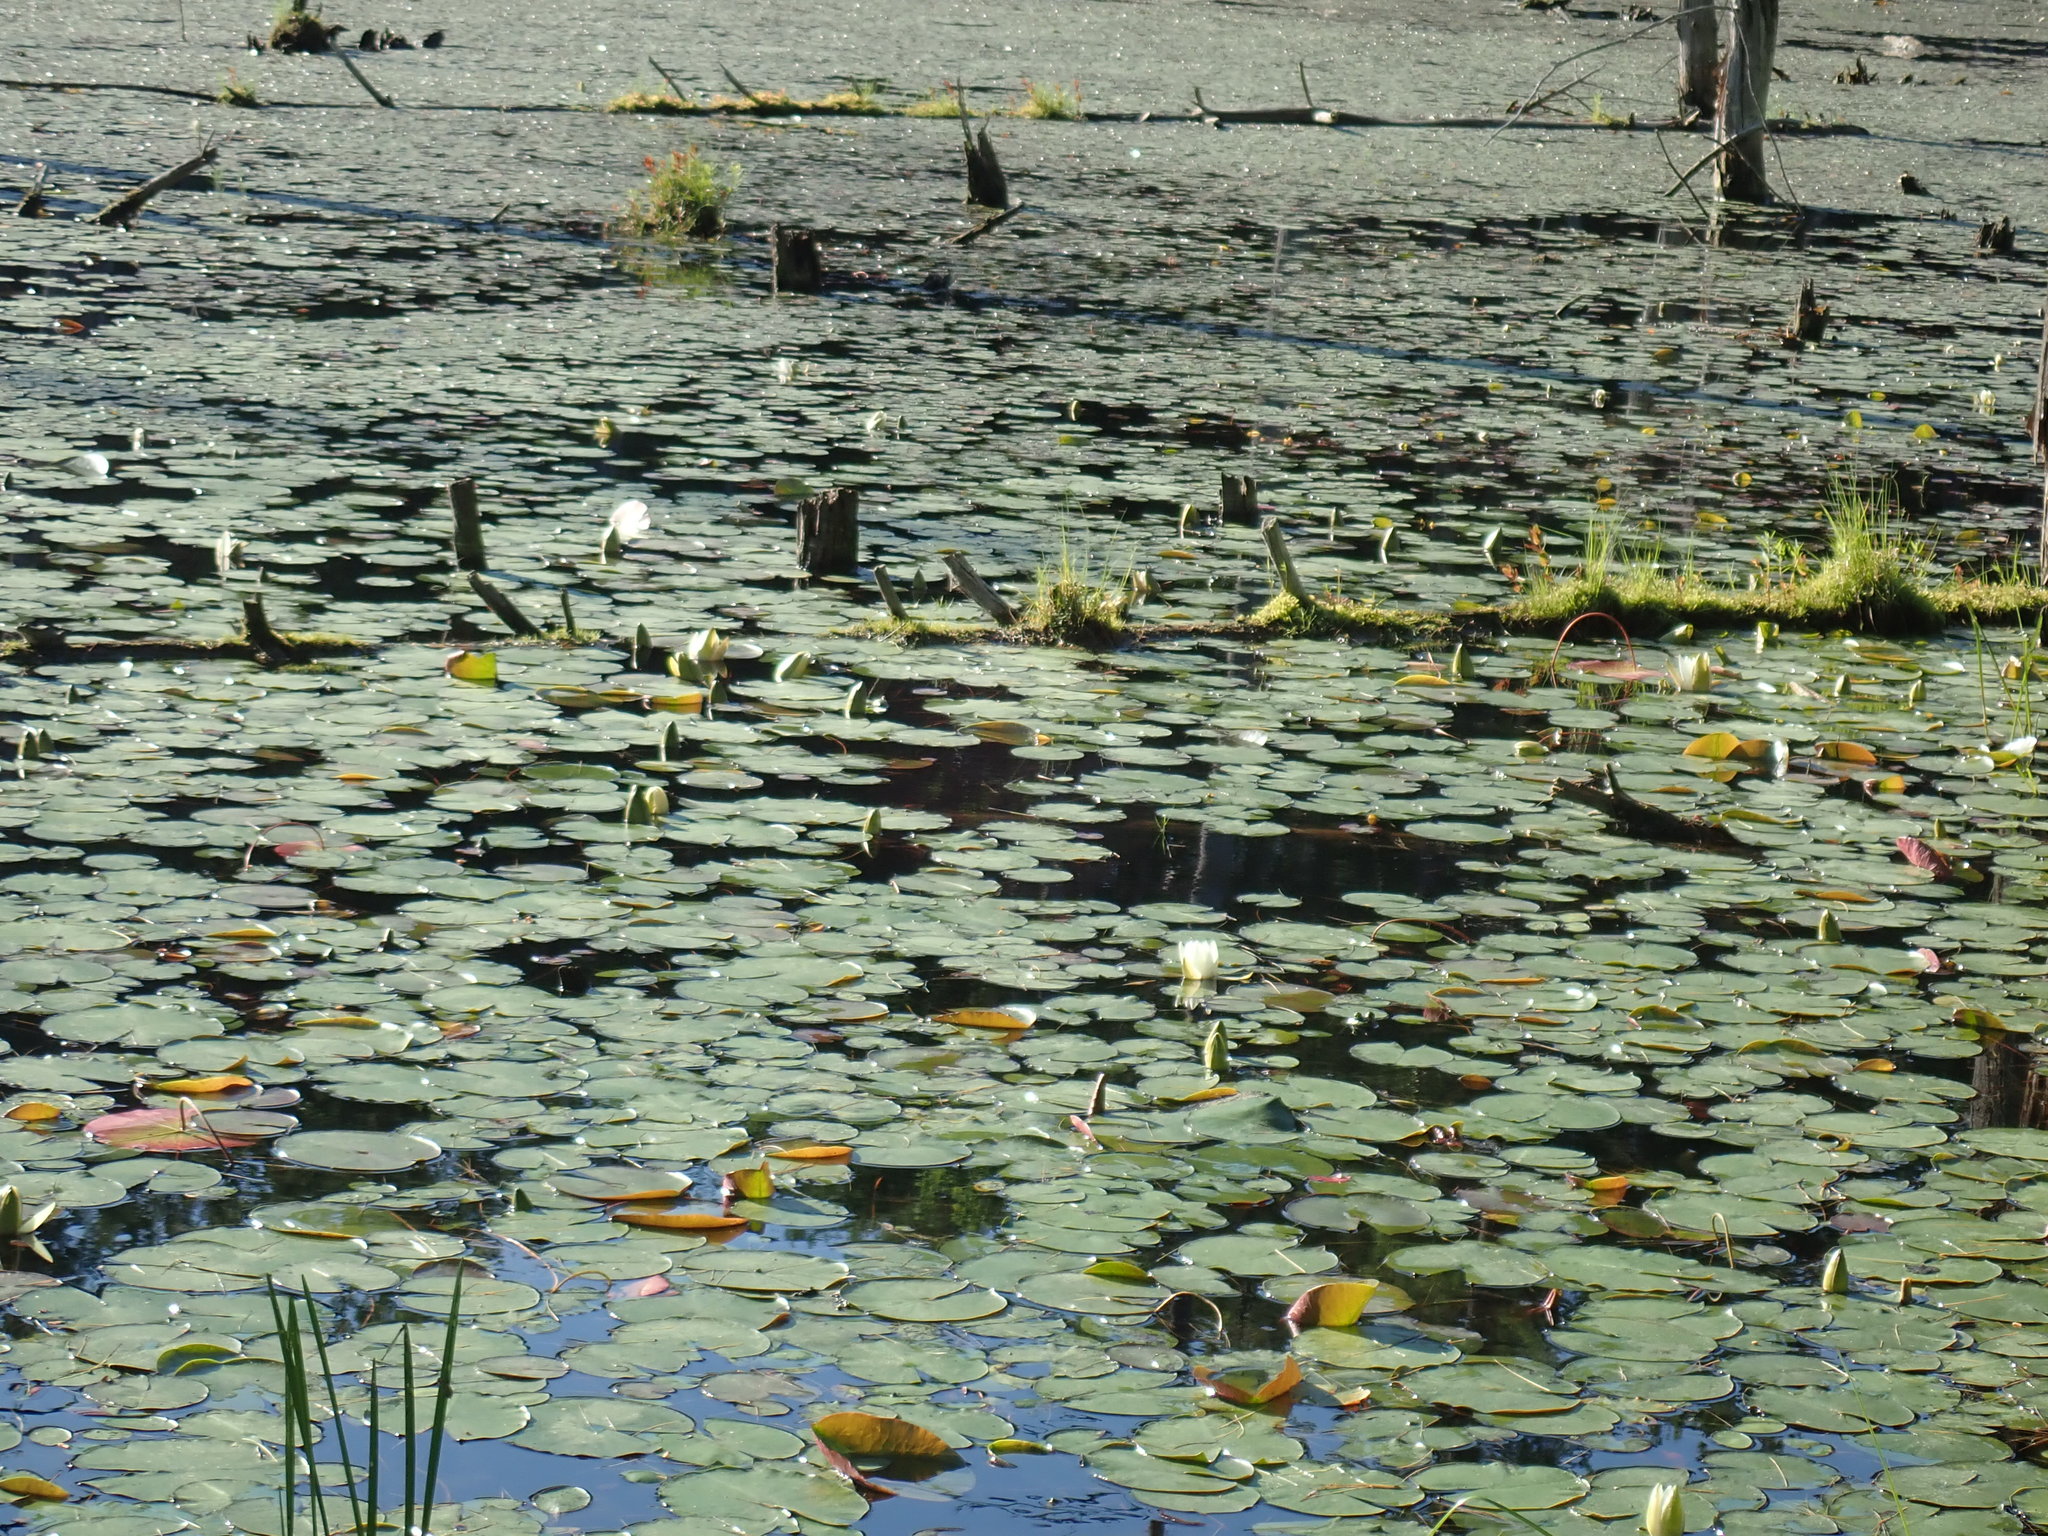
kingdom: Plantae
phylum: Tracheophyta
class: Magnoliopsida
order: Nymphaeales
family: Nymphaeaceae
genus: Nymphaea
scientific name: Nymphaea odorata
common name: Fragrant water-lily
